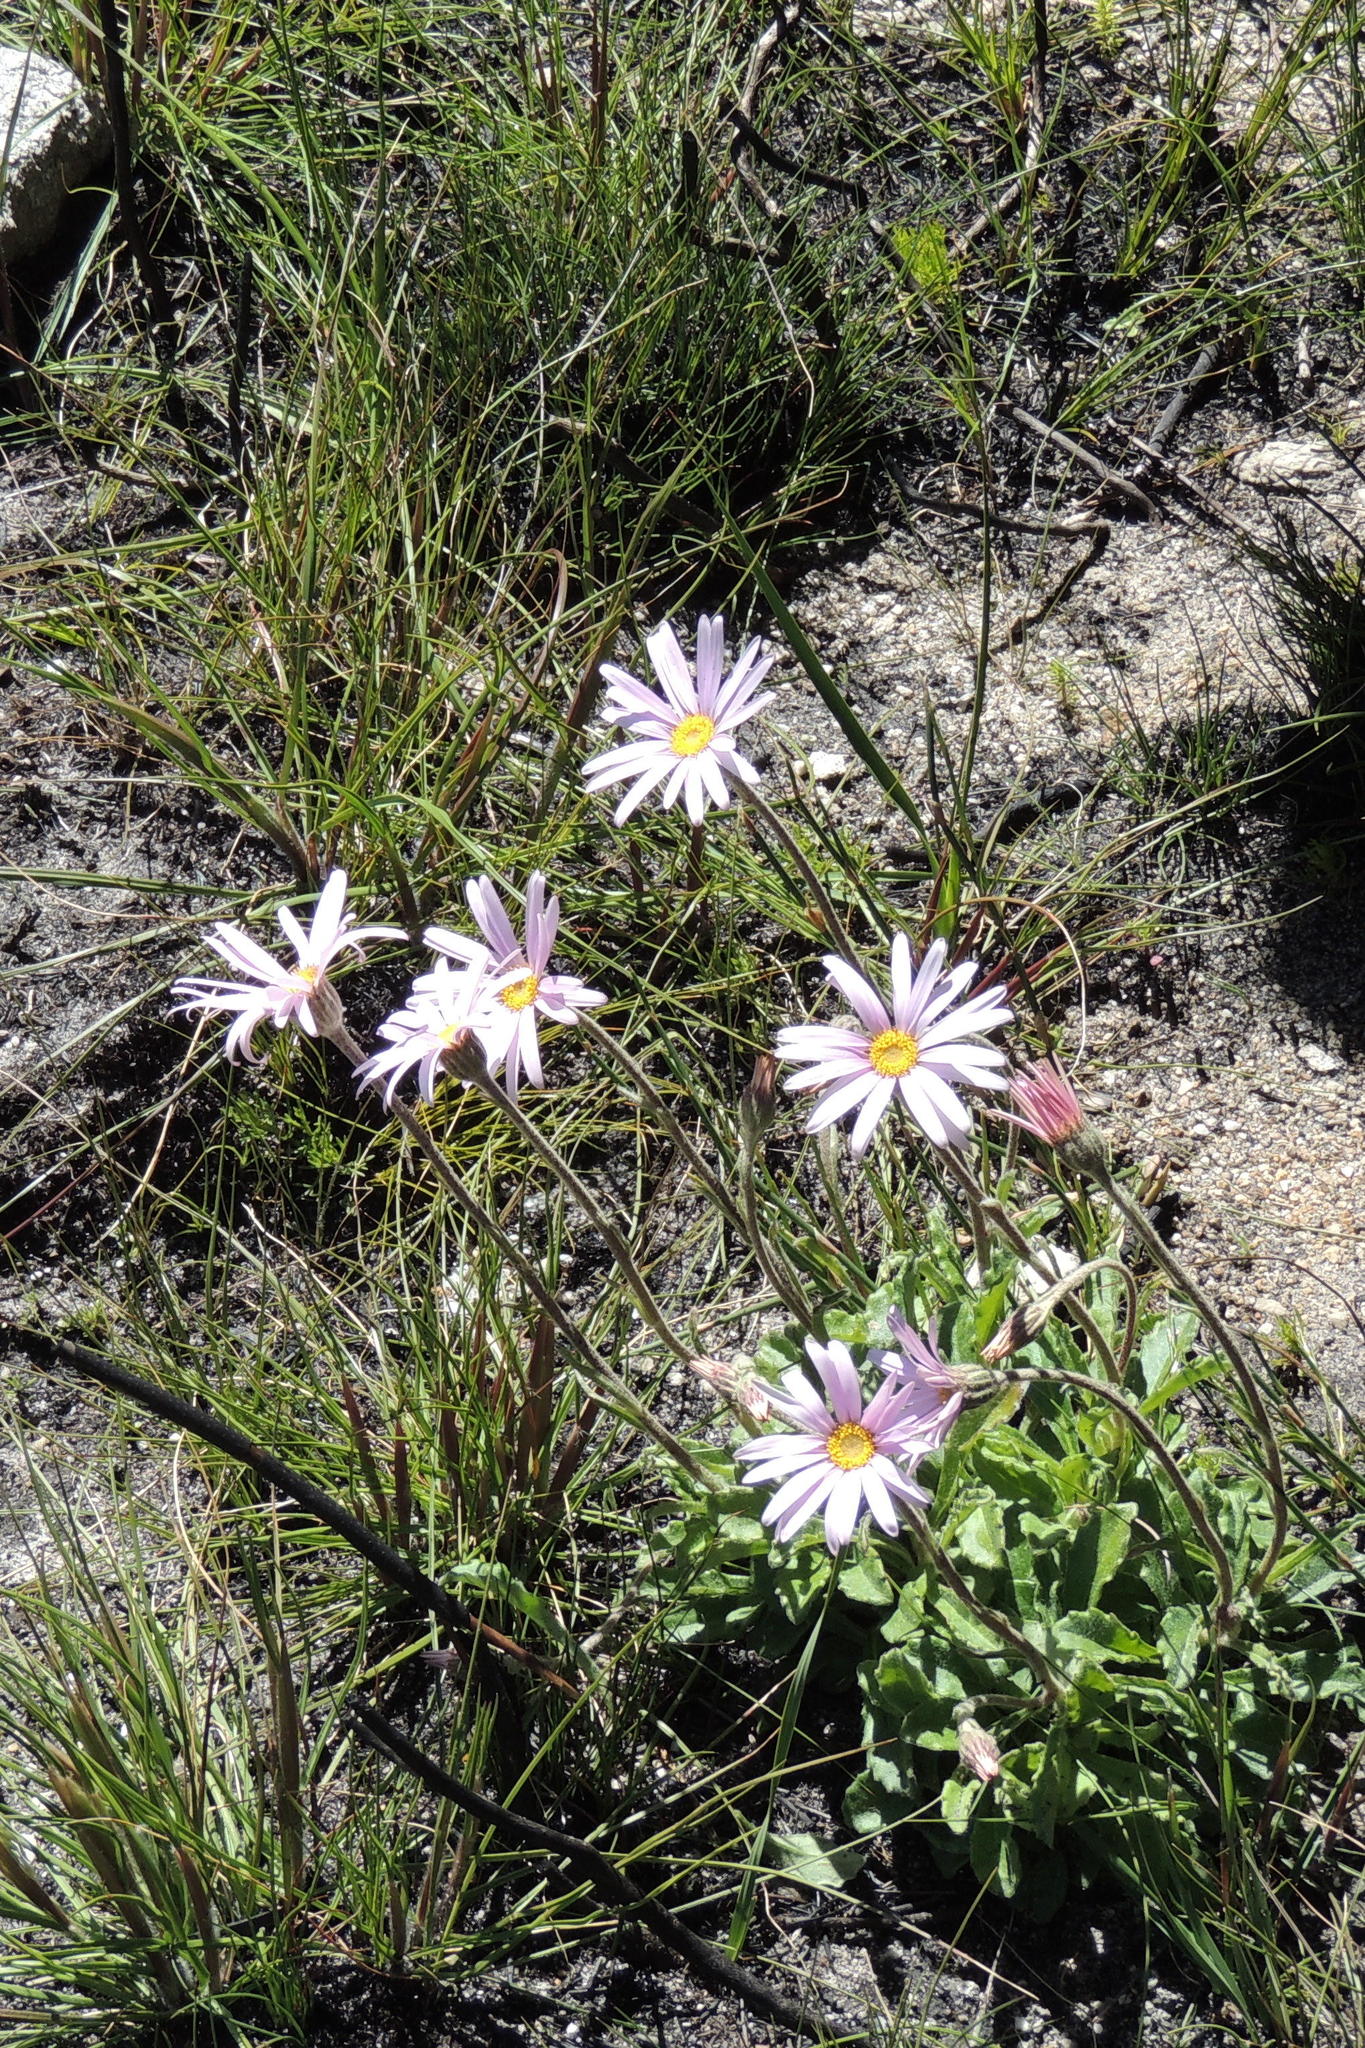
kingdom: Plantae
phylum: Tracheophyta
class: Magnoliopsida
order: Asterales
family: Asteraceae
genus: Mairia
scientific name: Mairia purpurata
